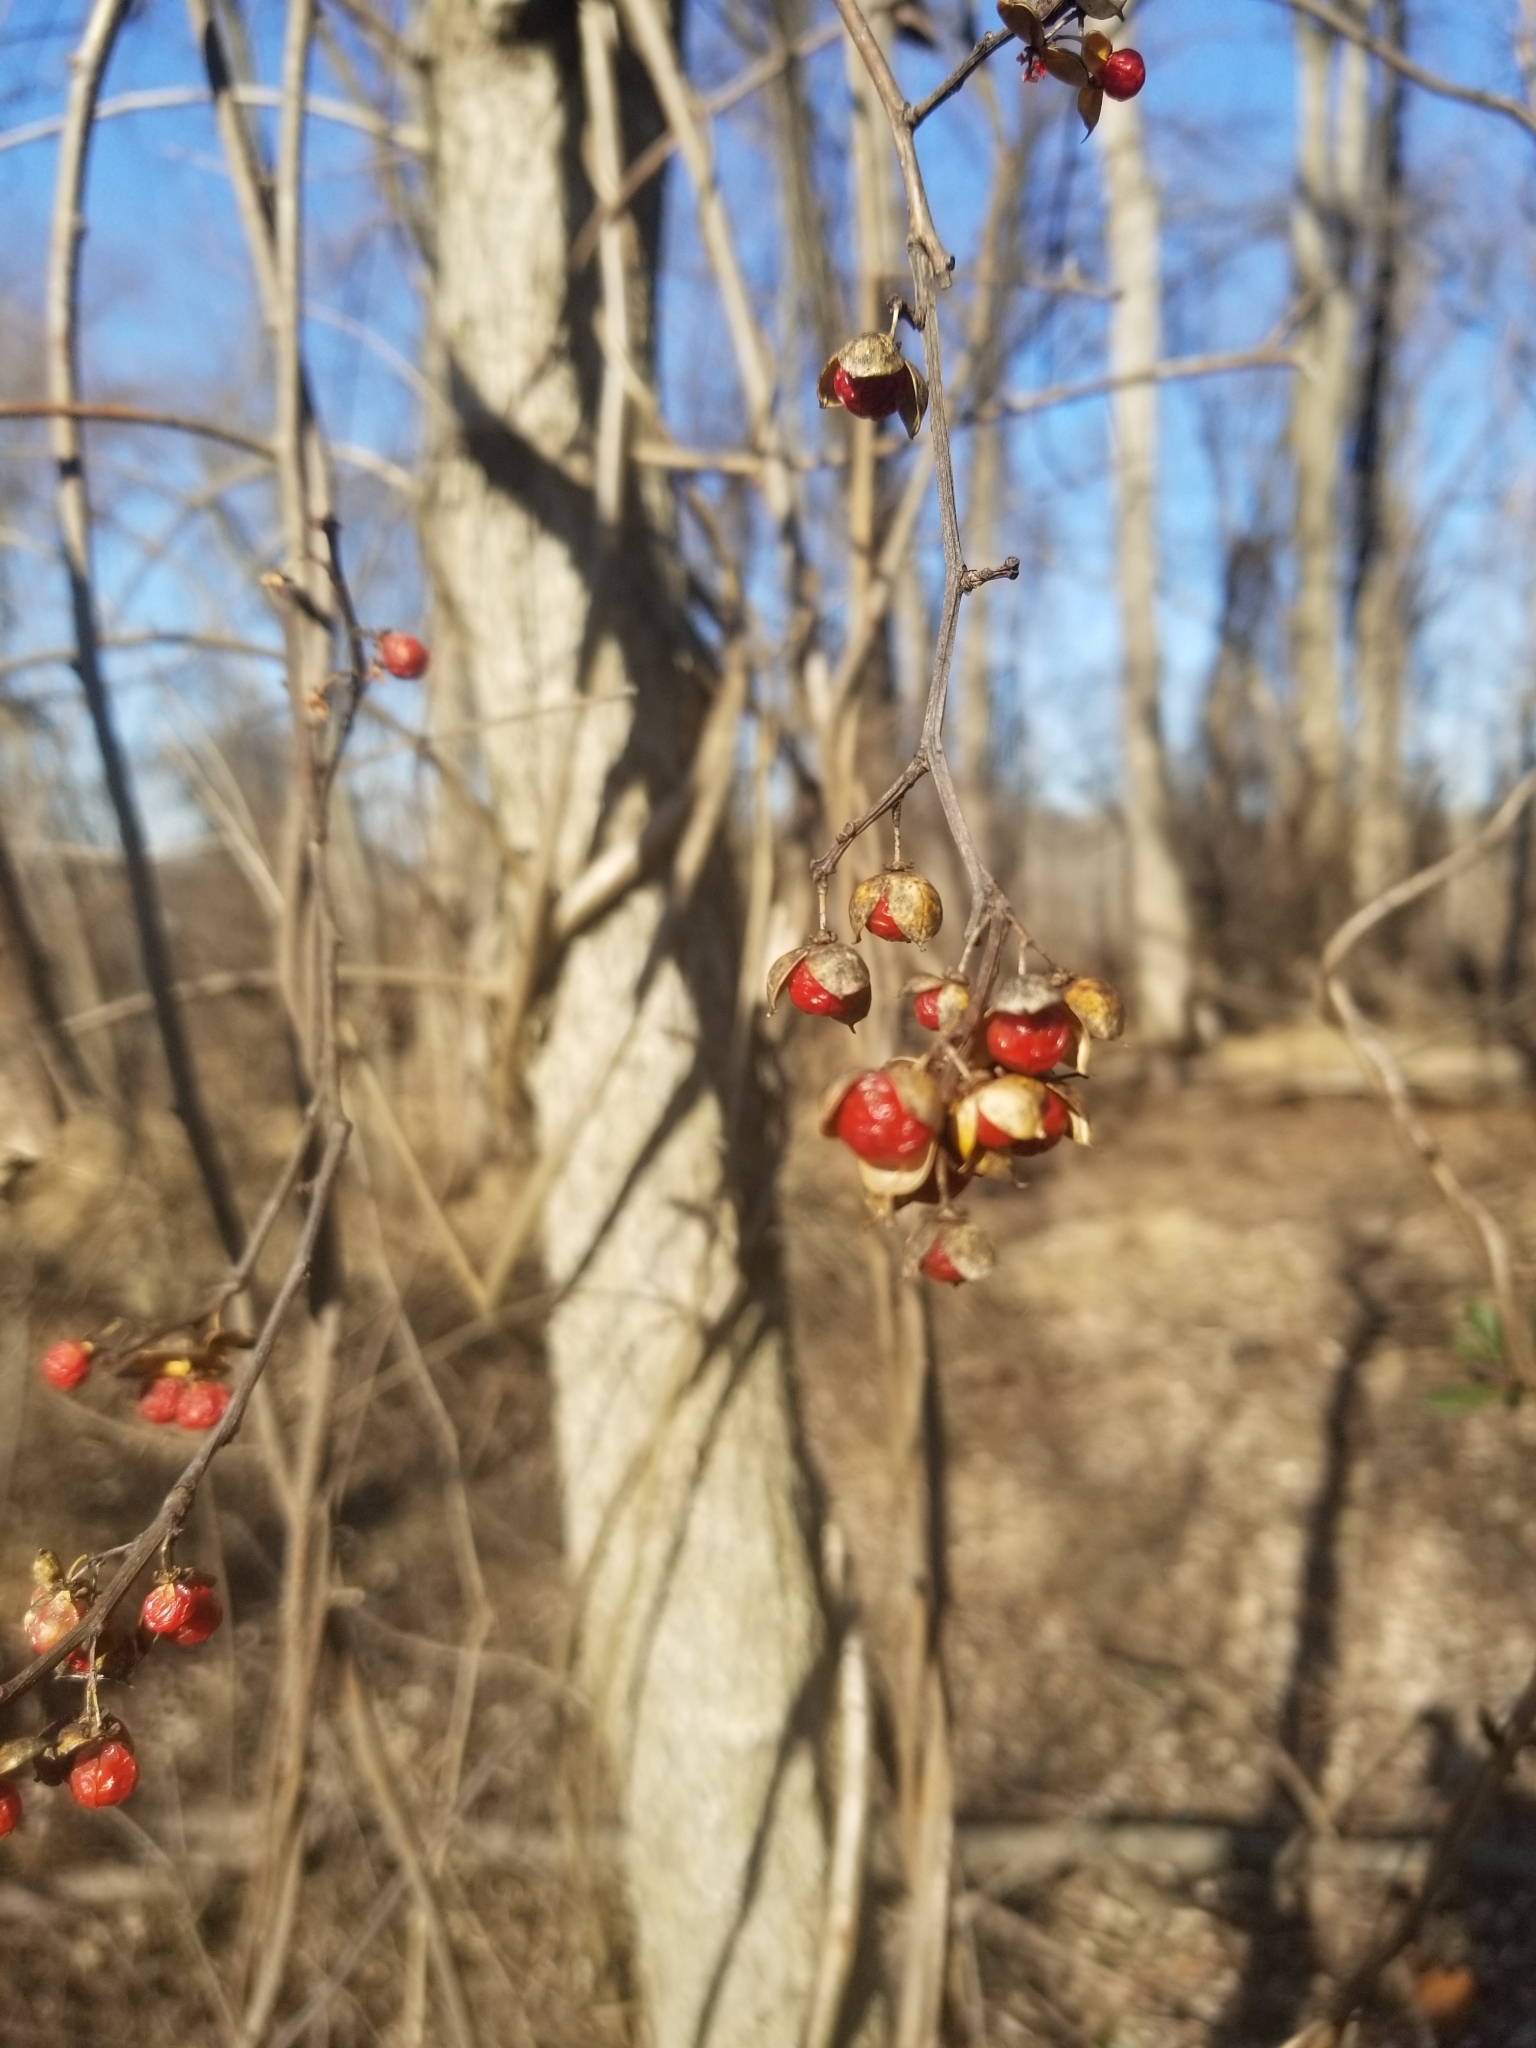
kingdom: Plantae
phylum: Tracheophyta
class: Magnoliopsida
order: Celastrales
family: Celastraceae
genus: Celastrus
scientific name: Celastrus orbiculatus
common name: Oriental bittersweet
